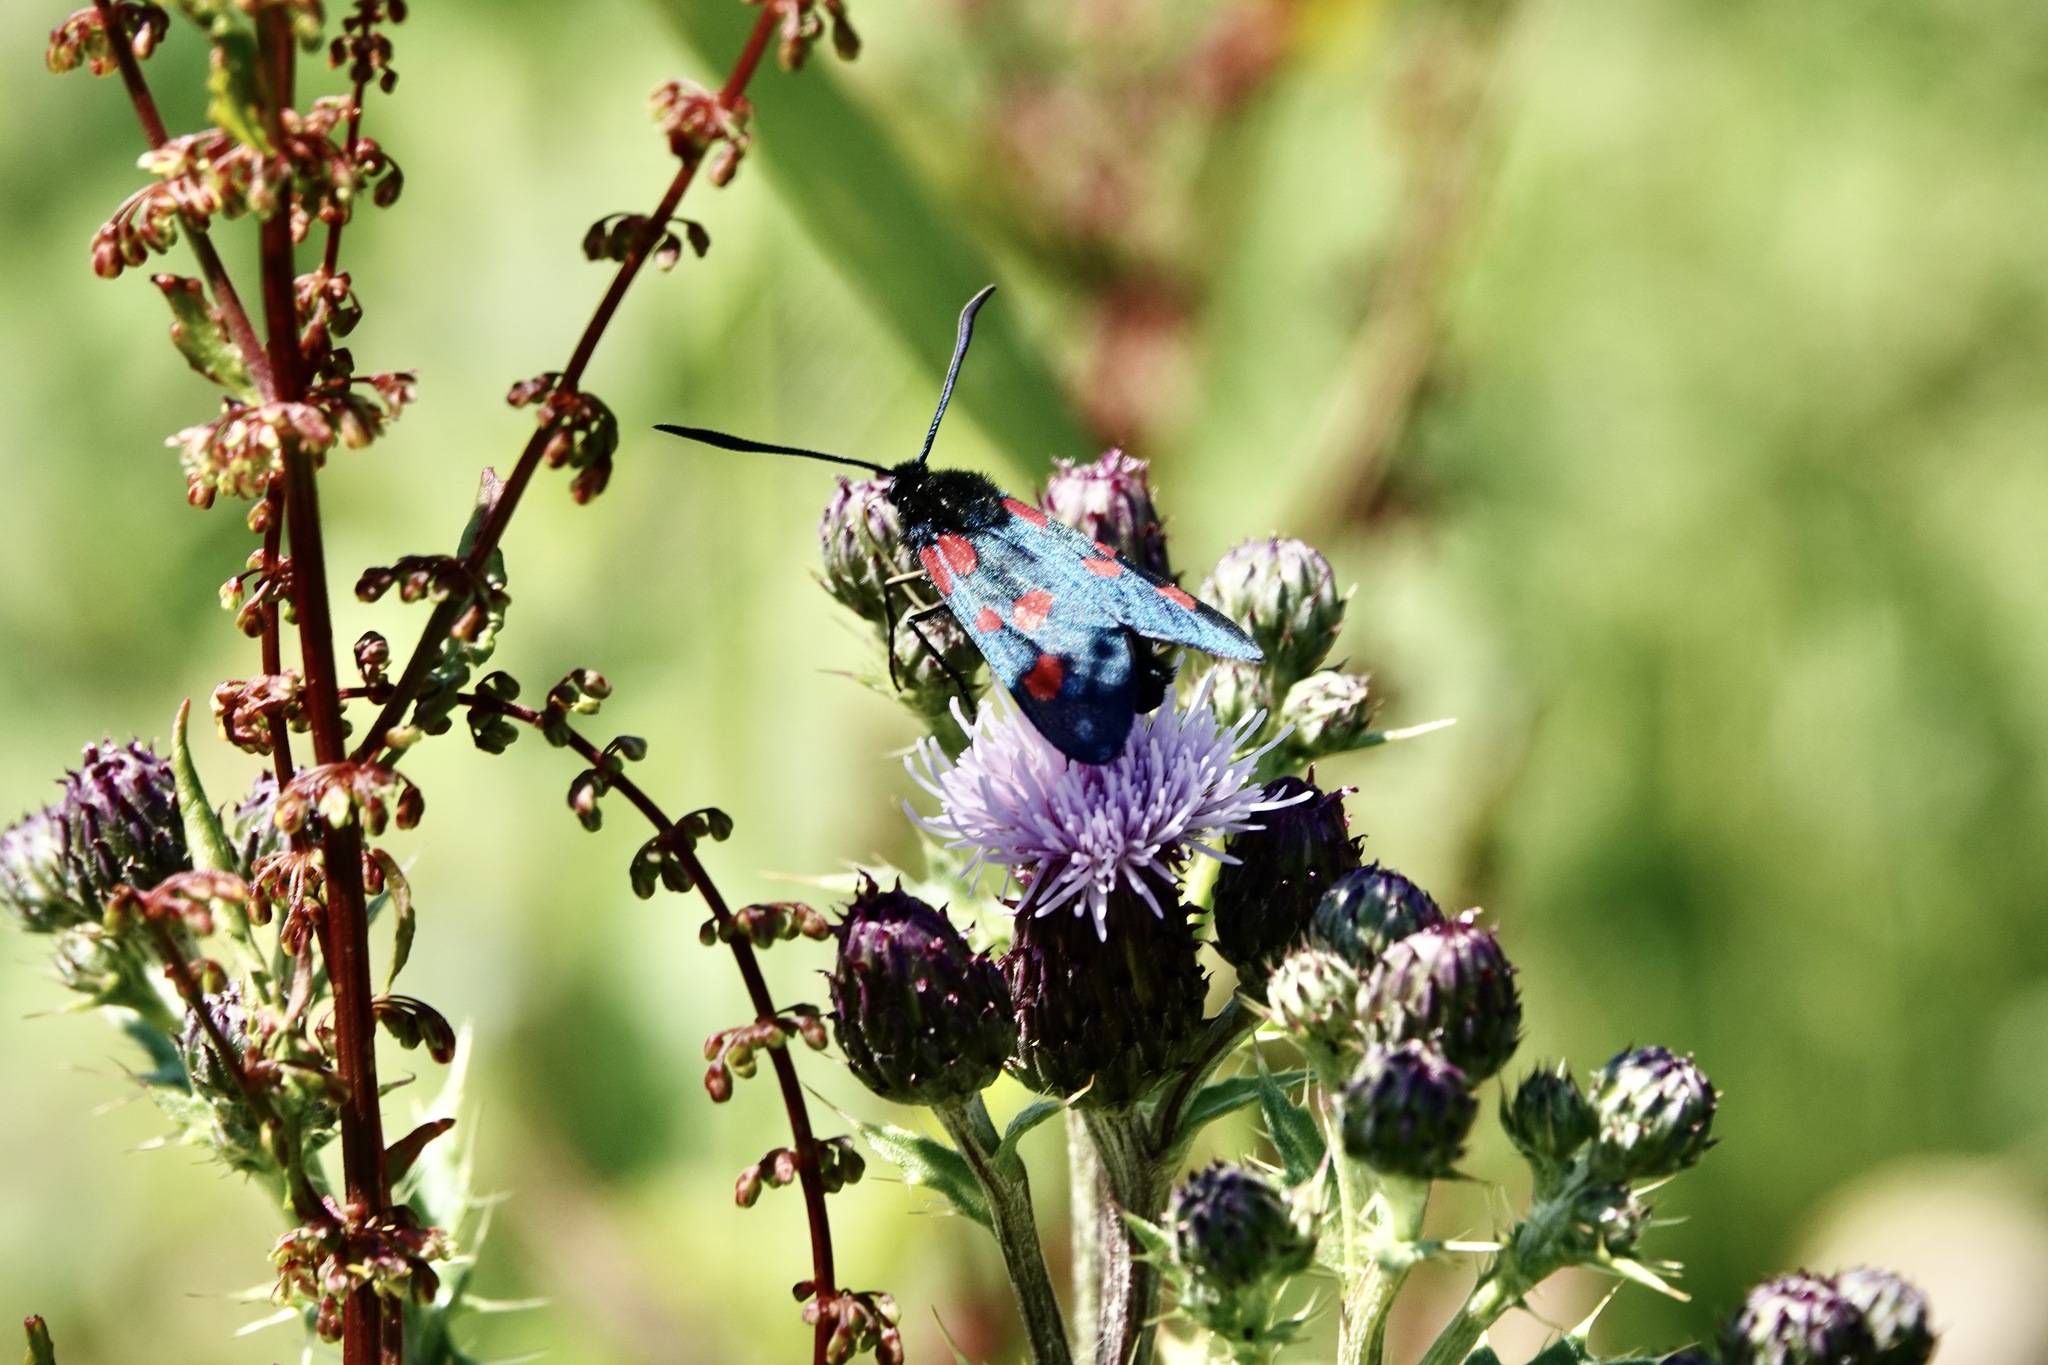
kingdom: Animalia
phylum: Arthropoda
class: Insecta
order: Lepidoptera
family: Zygaenidae
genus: Zygaena
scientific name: Zygaena
